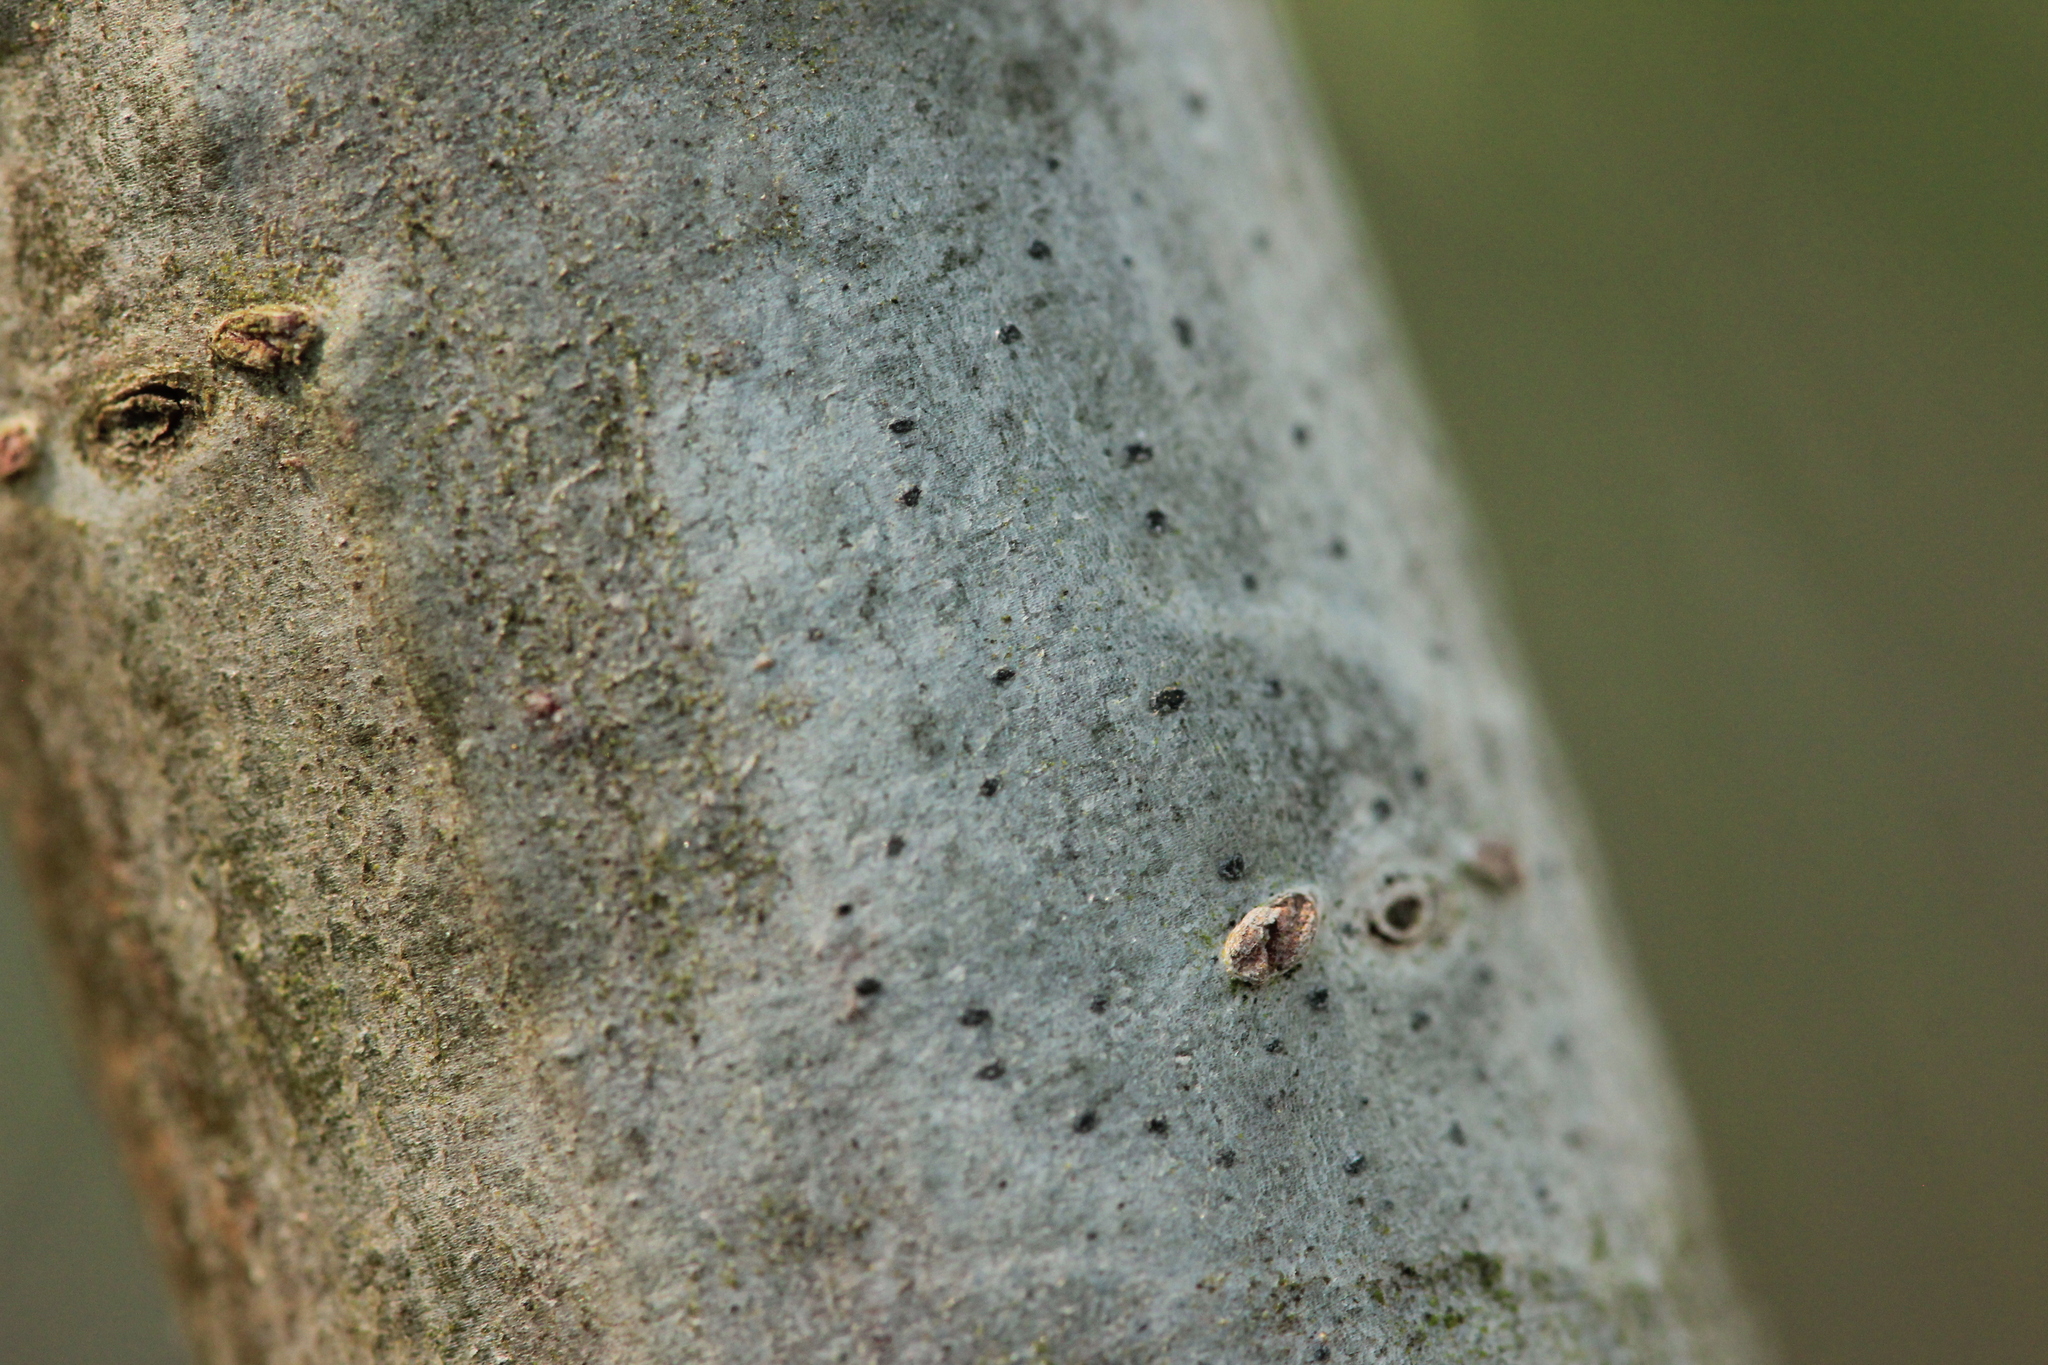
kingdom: Fungi
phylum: Ascomycota
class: Arthoniomycetes
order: Arthoniales
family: Arthoniaceae
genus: Arthonia
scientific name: Arthonia hypobela
